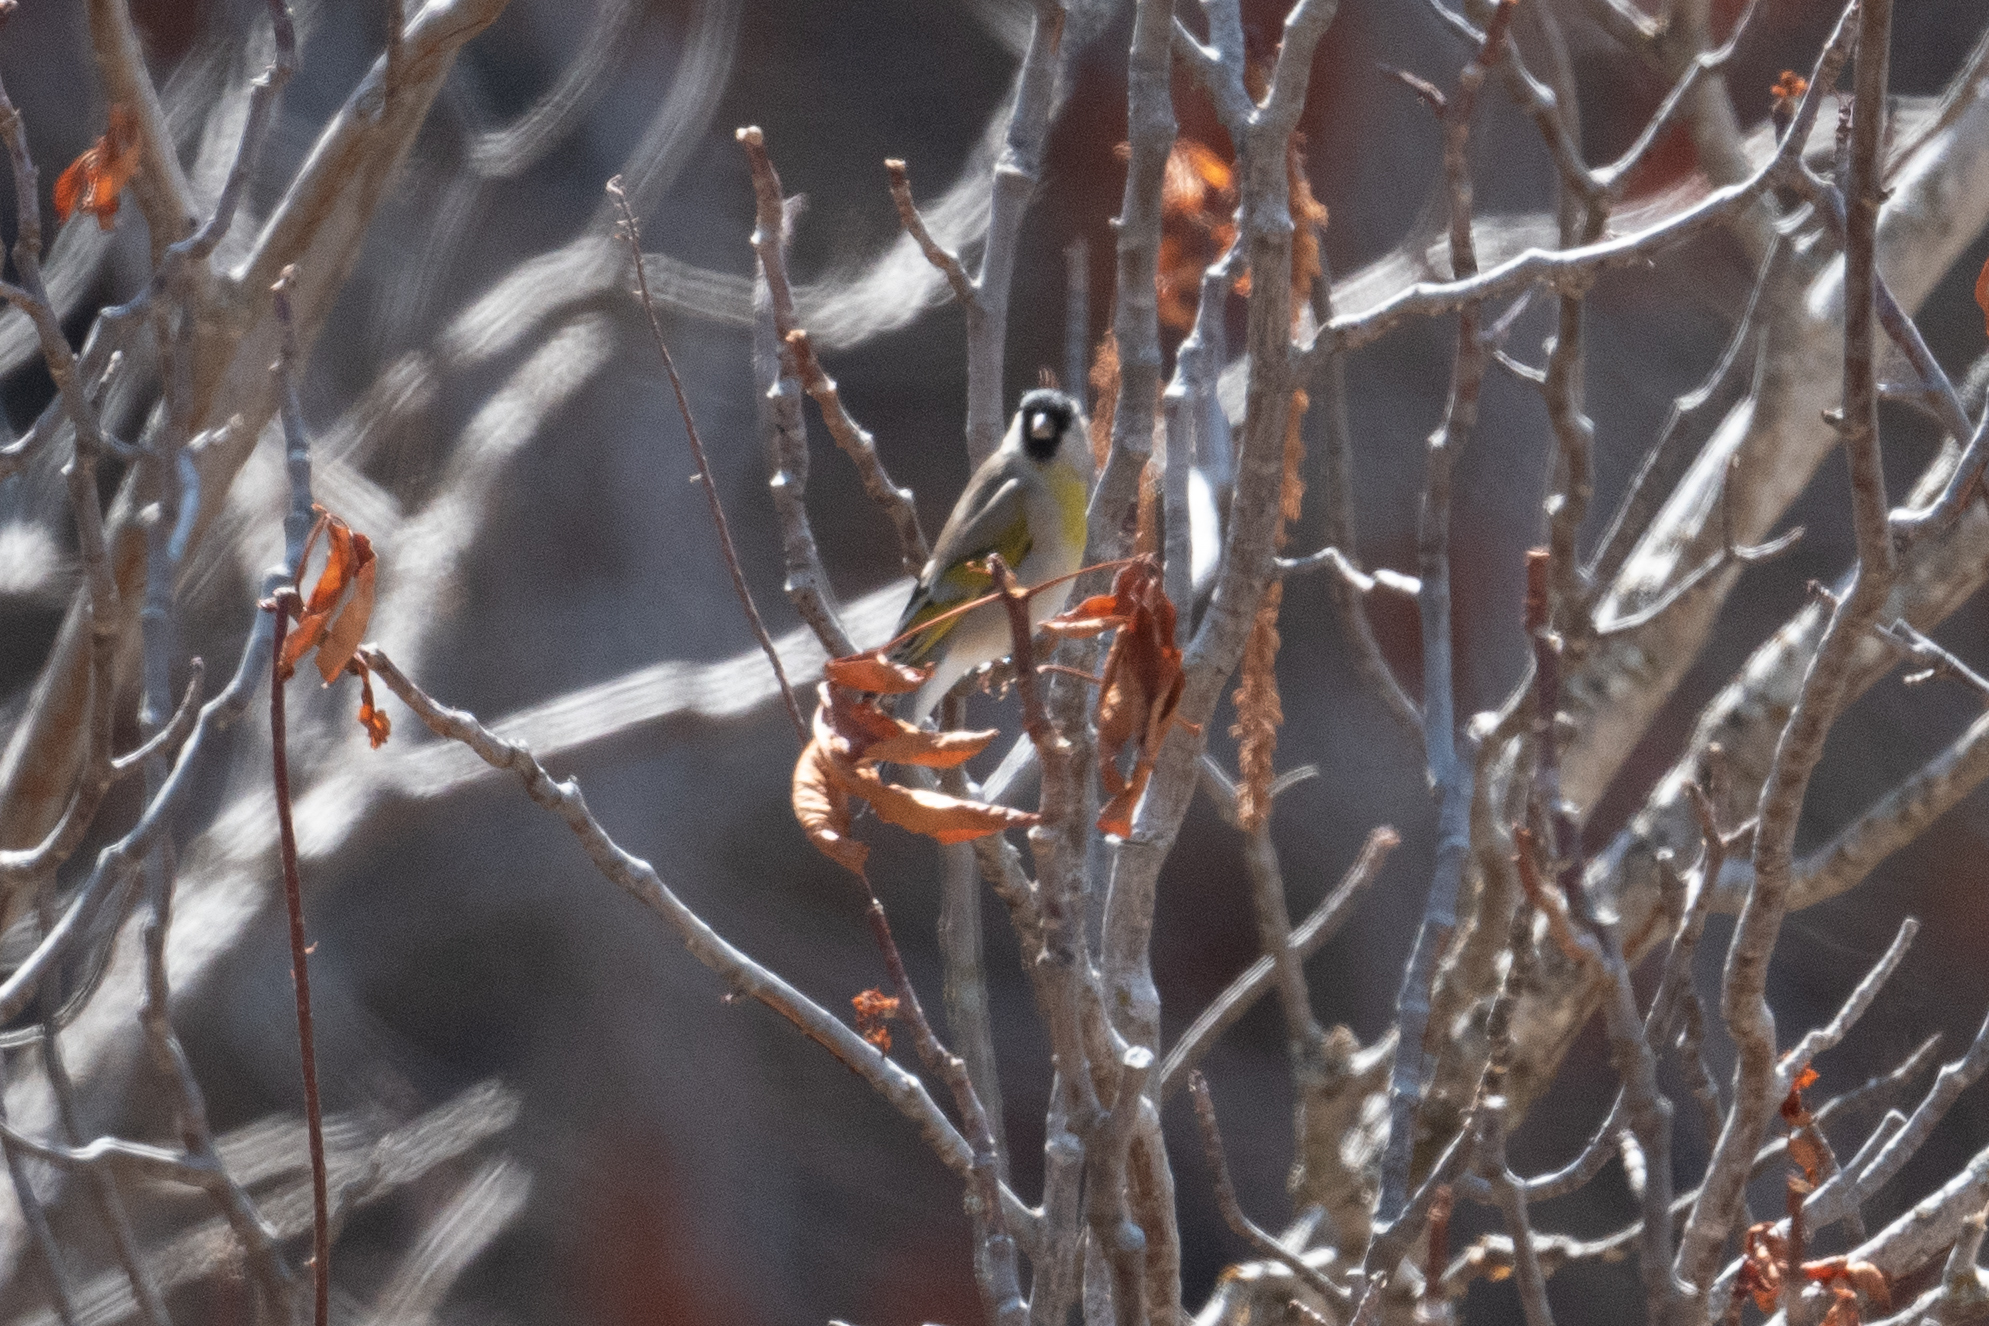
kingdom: Animalia
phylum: Chordata
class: Aves
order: Passeriformes
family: Fringillidae
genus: Spinus
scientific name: Spinus lawrencei
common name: Lawrence's goldfinch
